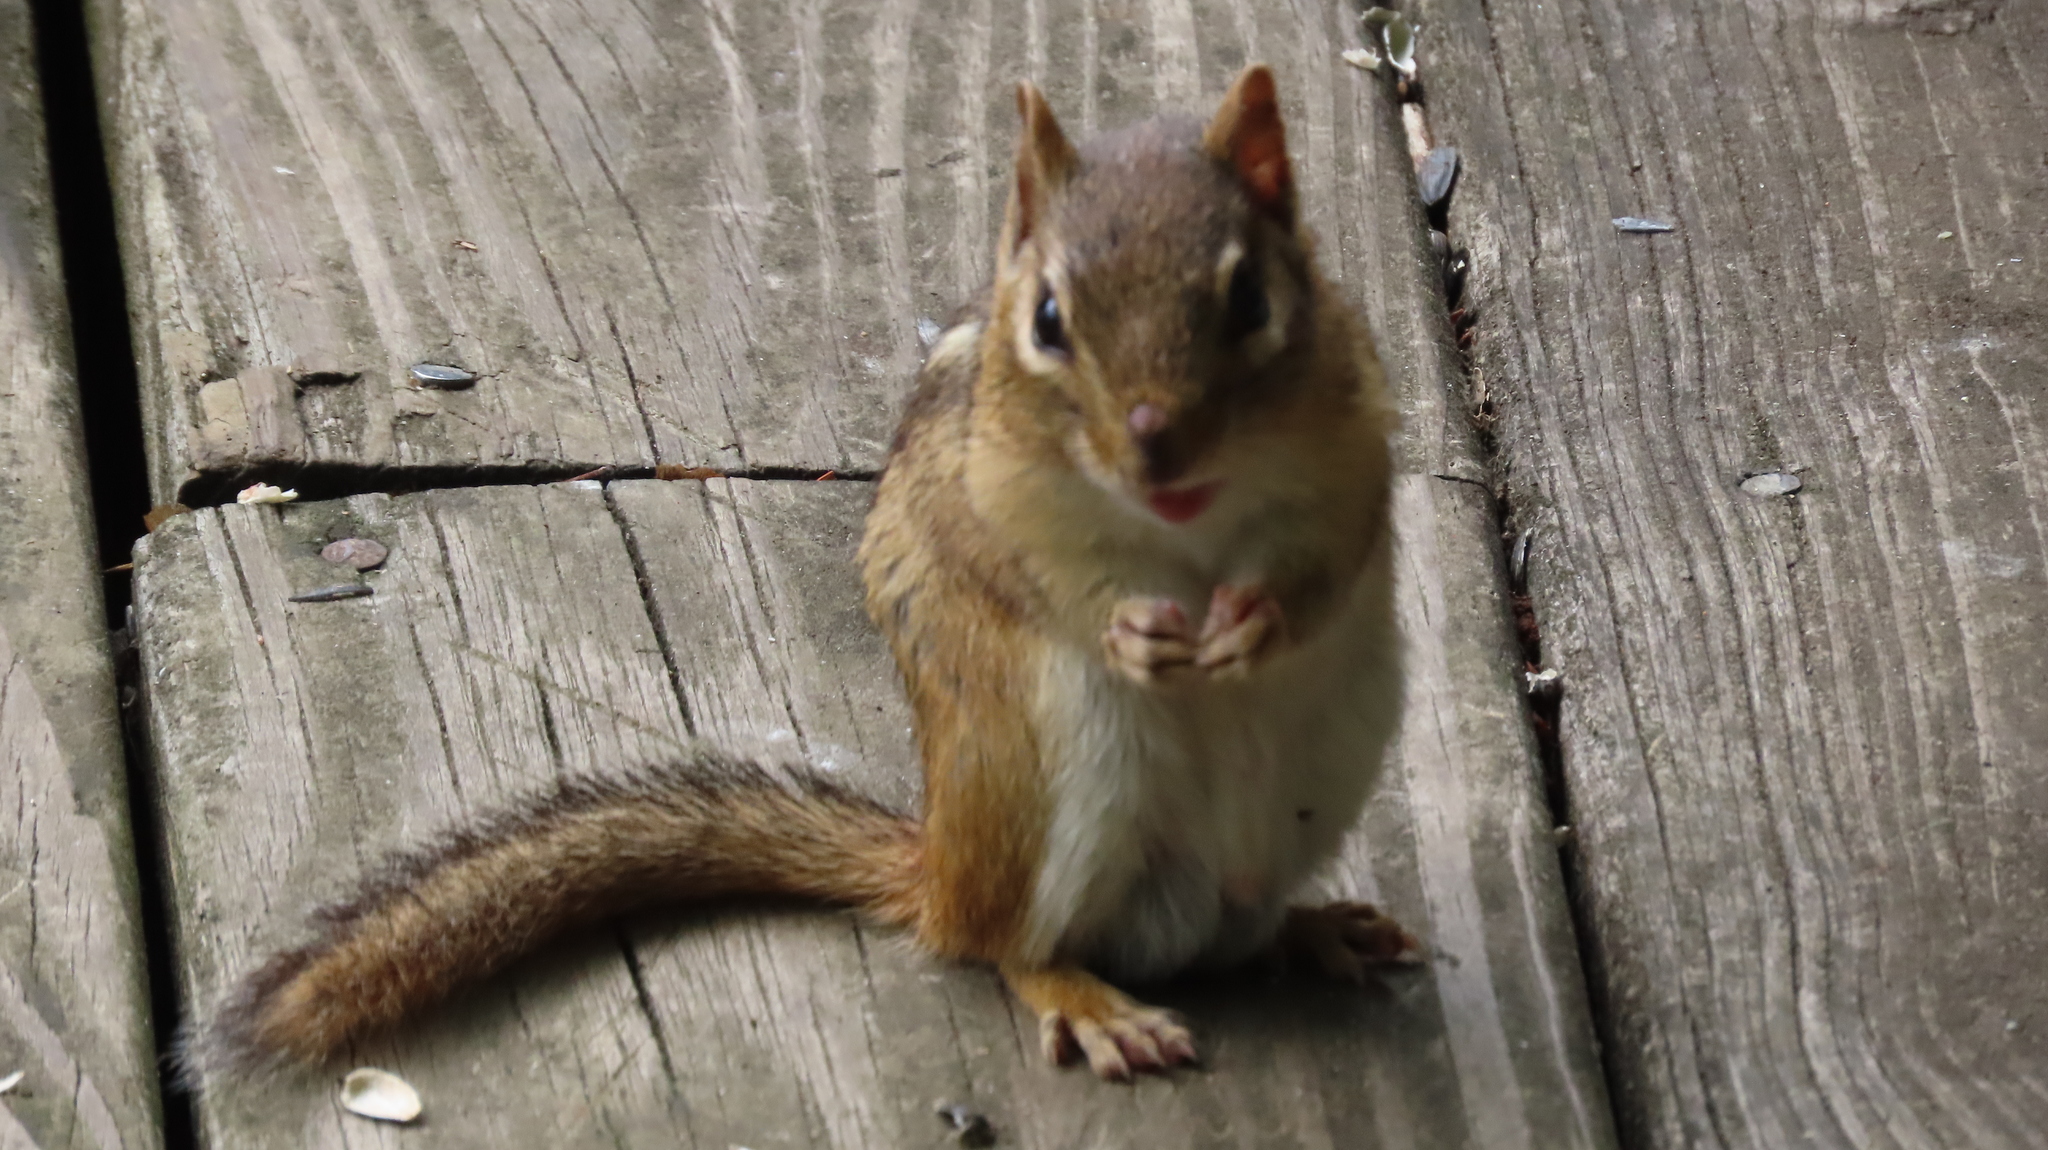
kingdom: Animalia
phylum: Chordata
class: Mammalia
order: Rodentia
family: Sciuridae
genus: Tamias
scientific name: Tamias striatus
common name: Eastern chipmunk
